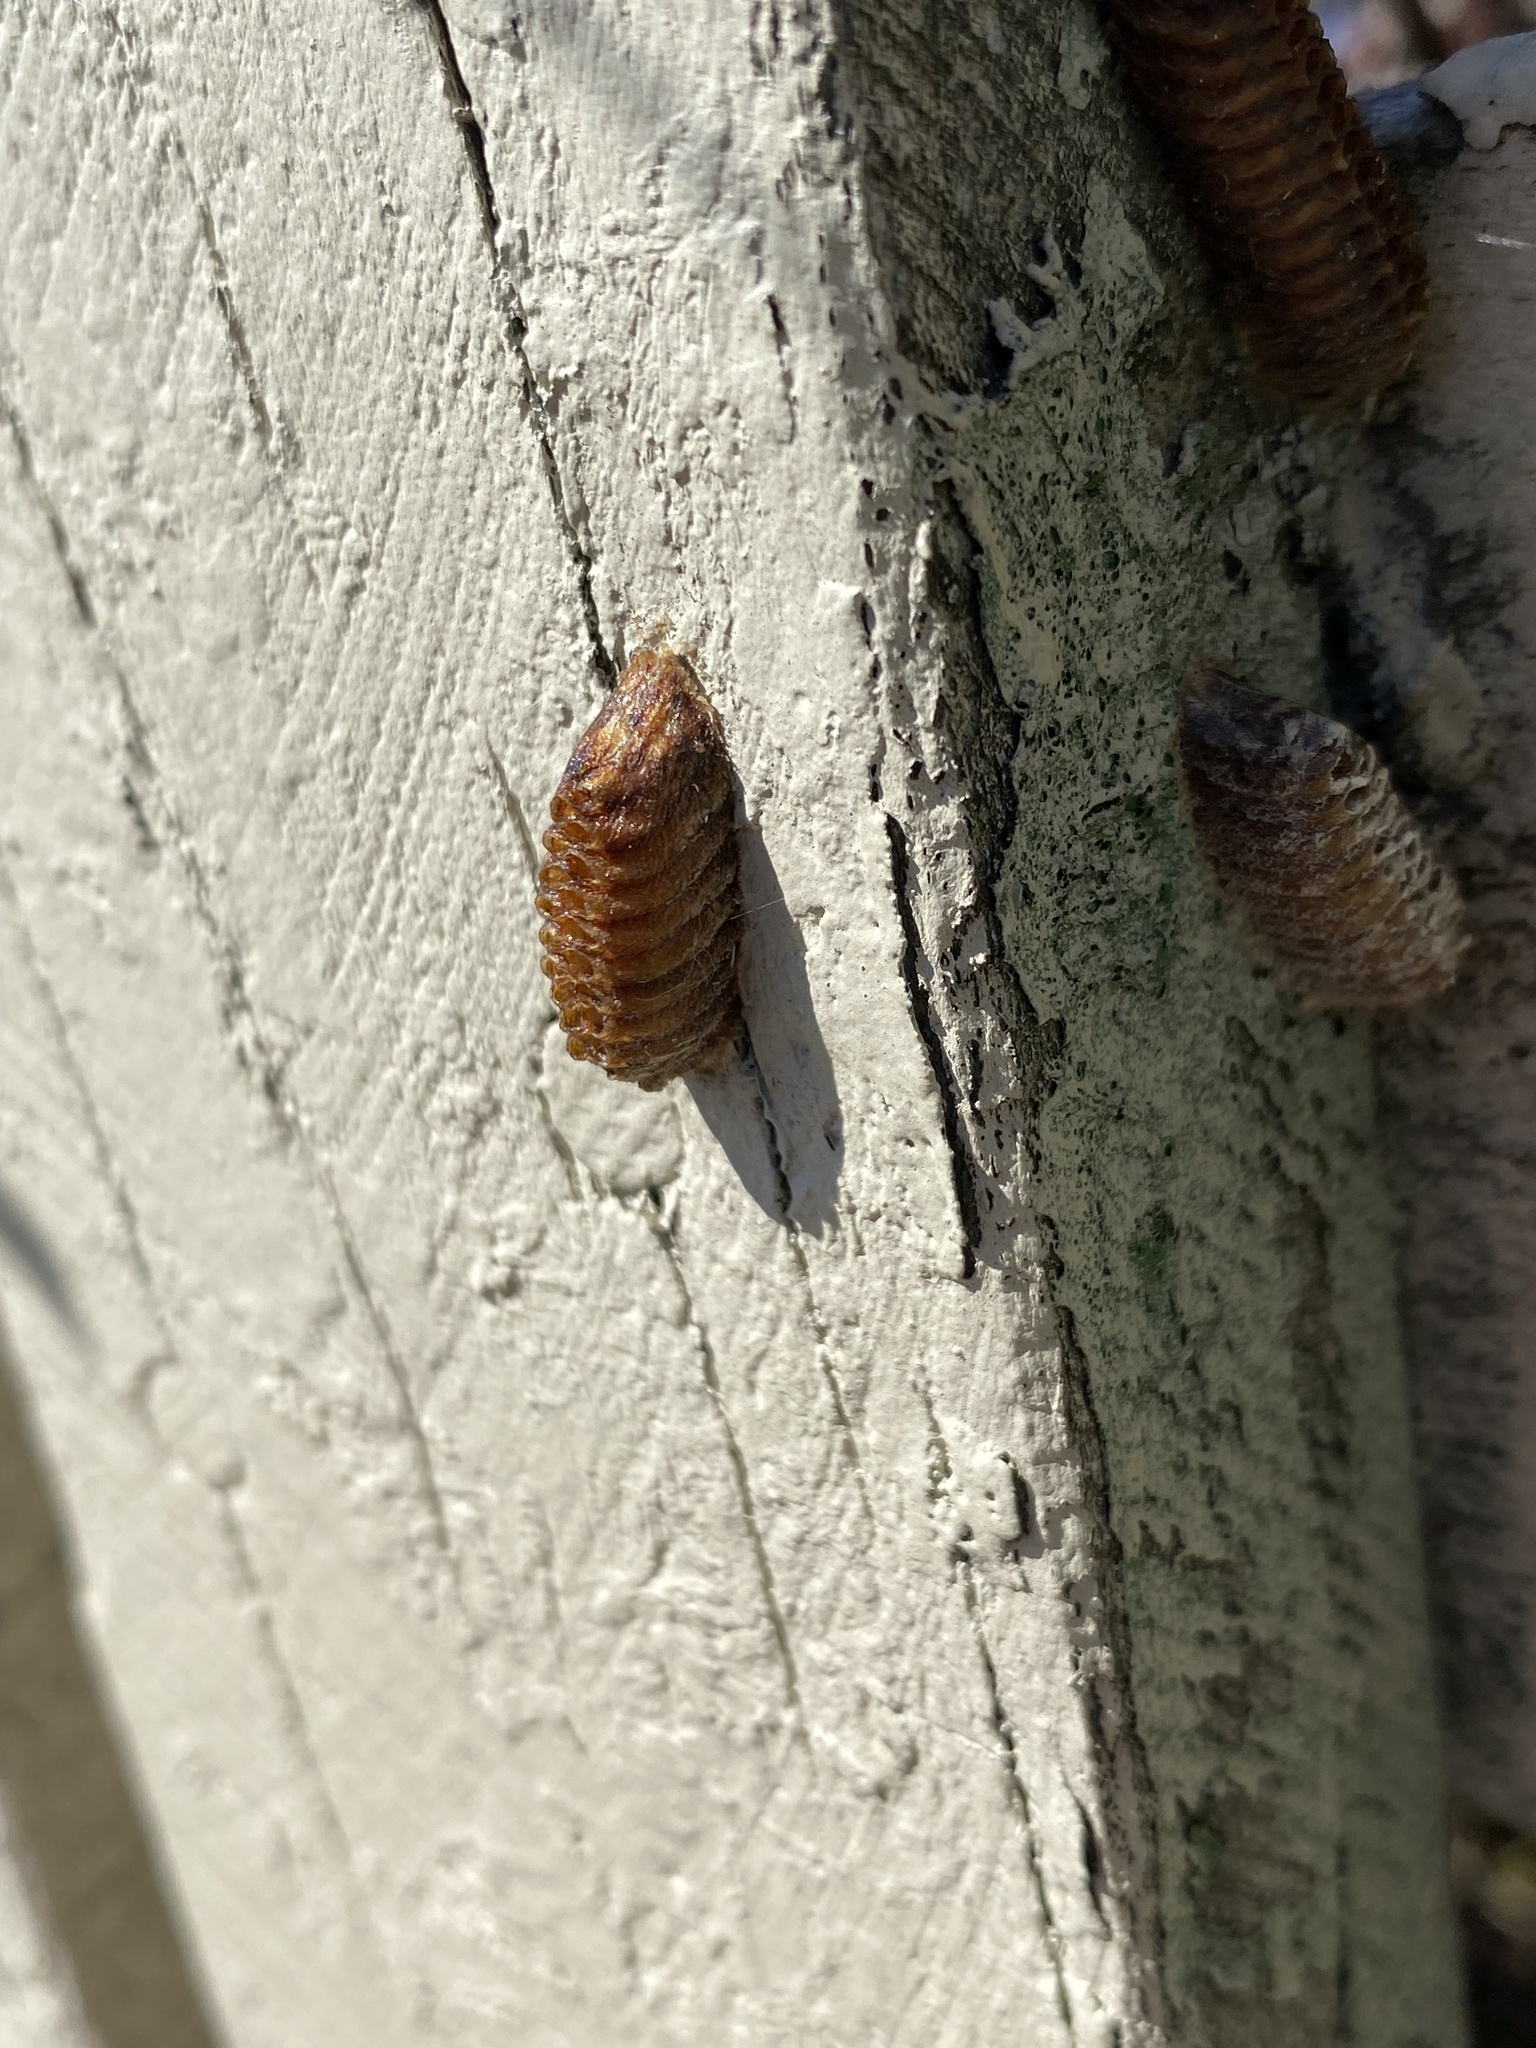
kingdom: Animalia
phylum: Arthropoda
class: Insecta
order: Mantodea
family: Mantidae
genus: Orthodera
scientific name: Orthodera novaezealandiae
